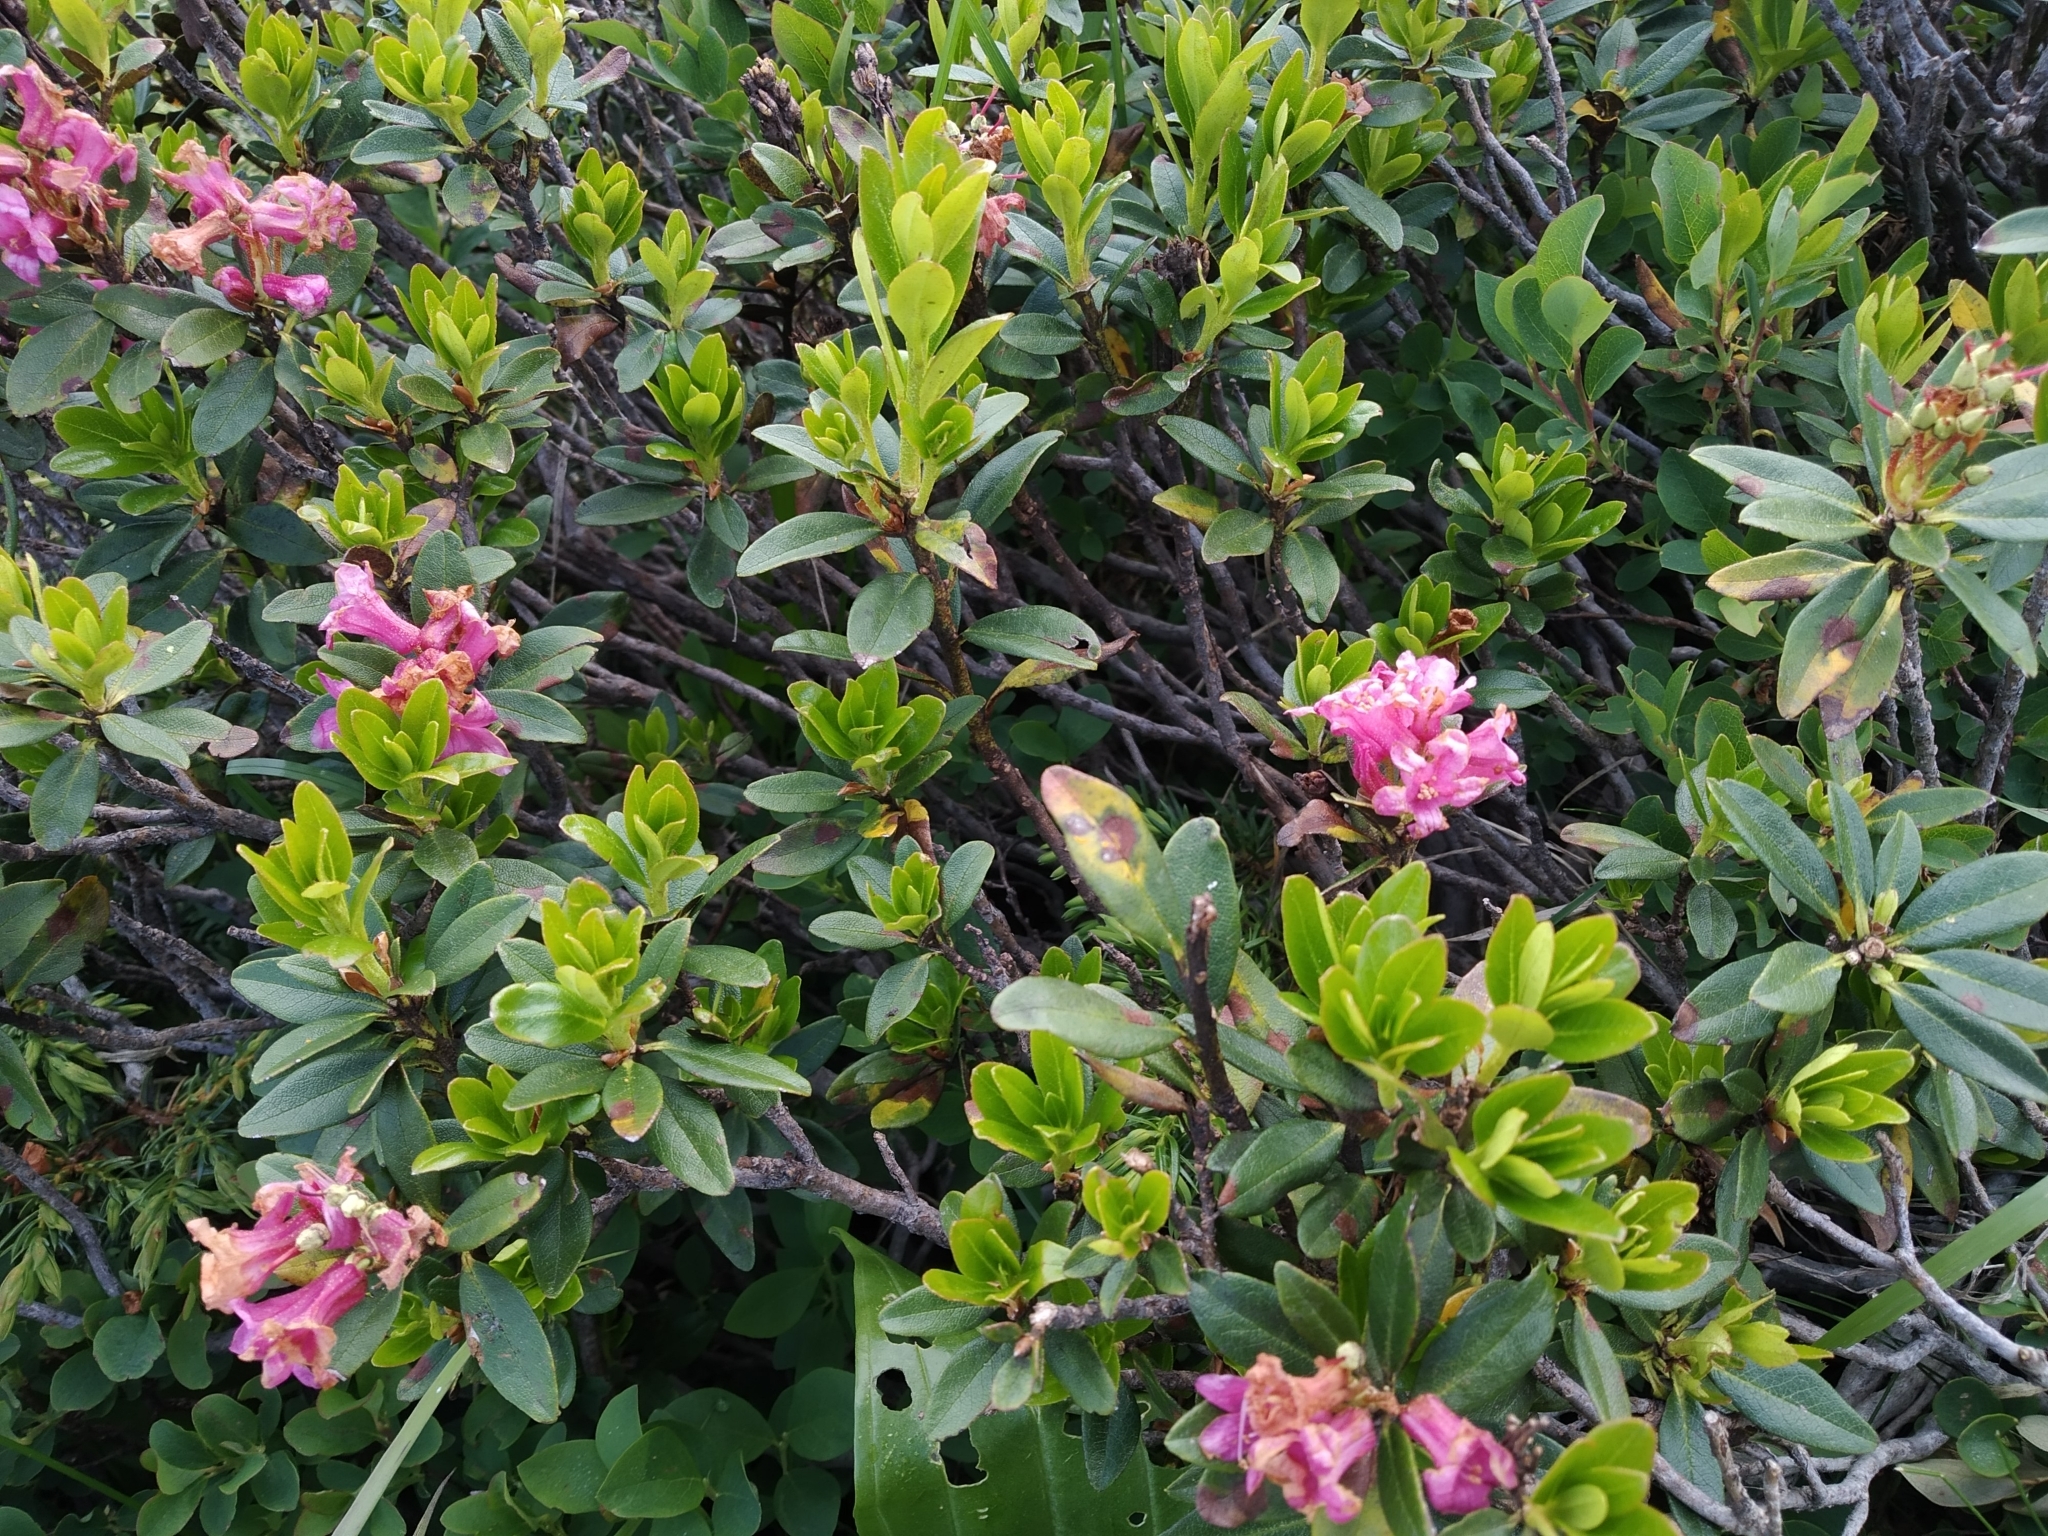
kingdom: Plantae
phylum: Tracheophyta
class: Magnoliopsida
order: Ericales
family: Ericaceae
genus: Rhododendron
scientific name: Rhododendron ferrugineum
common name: Alpenrose
